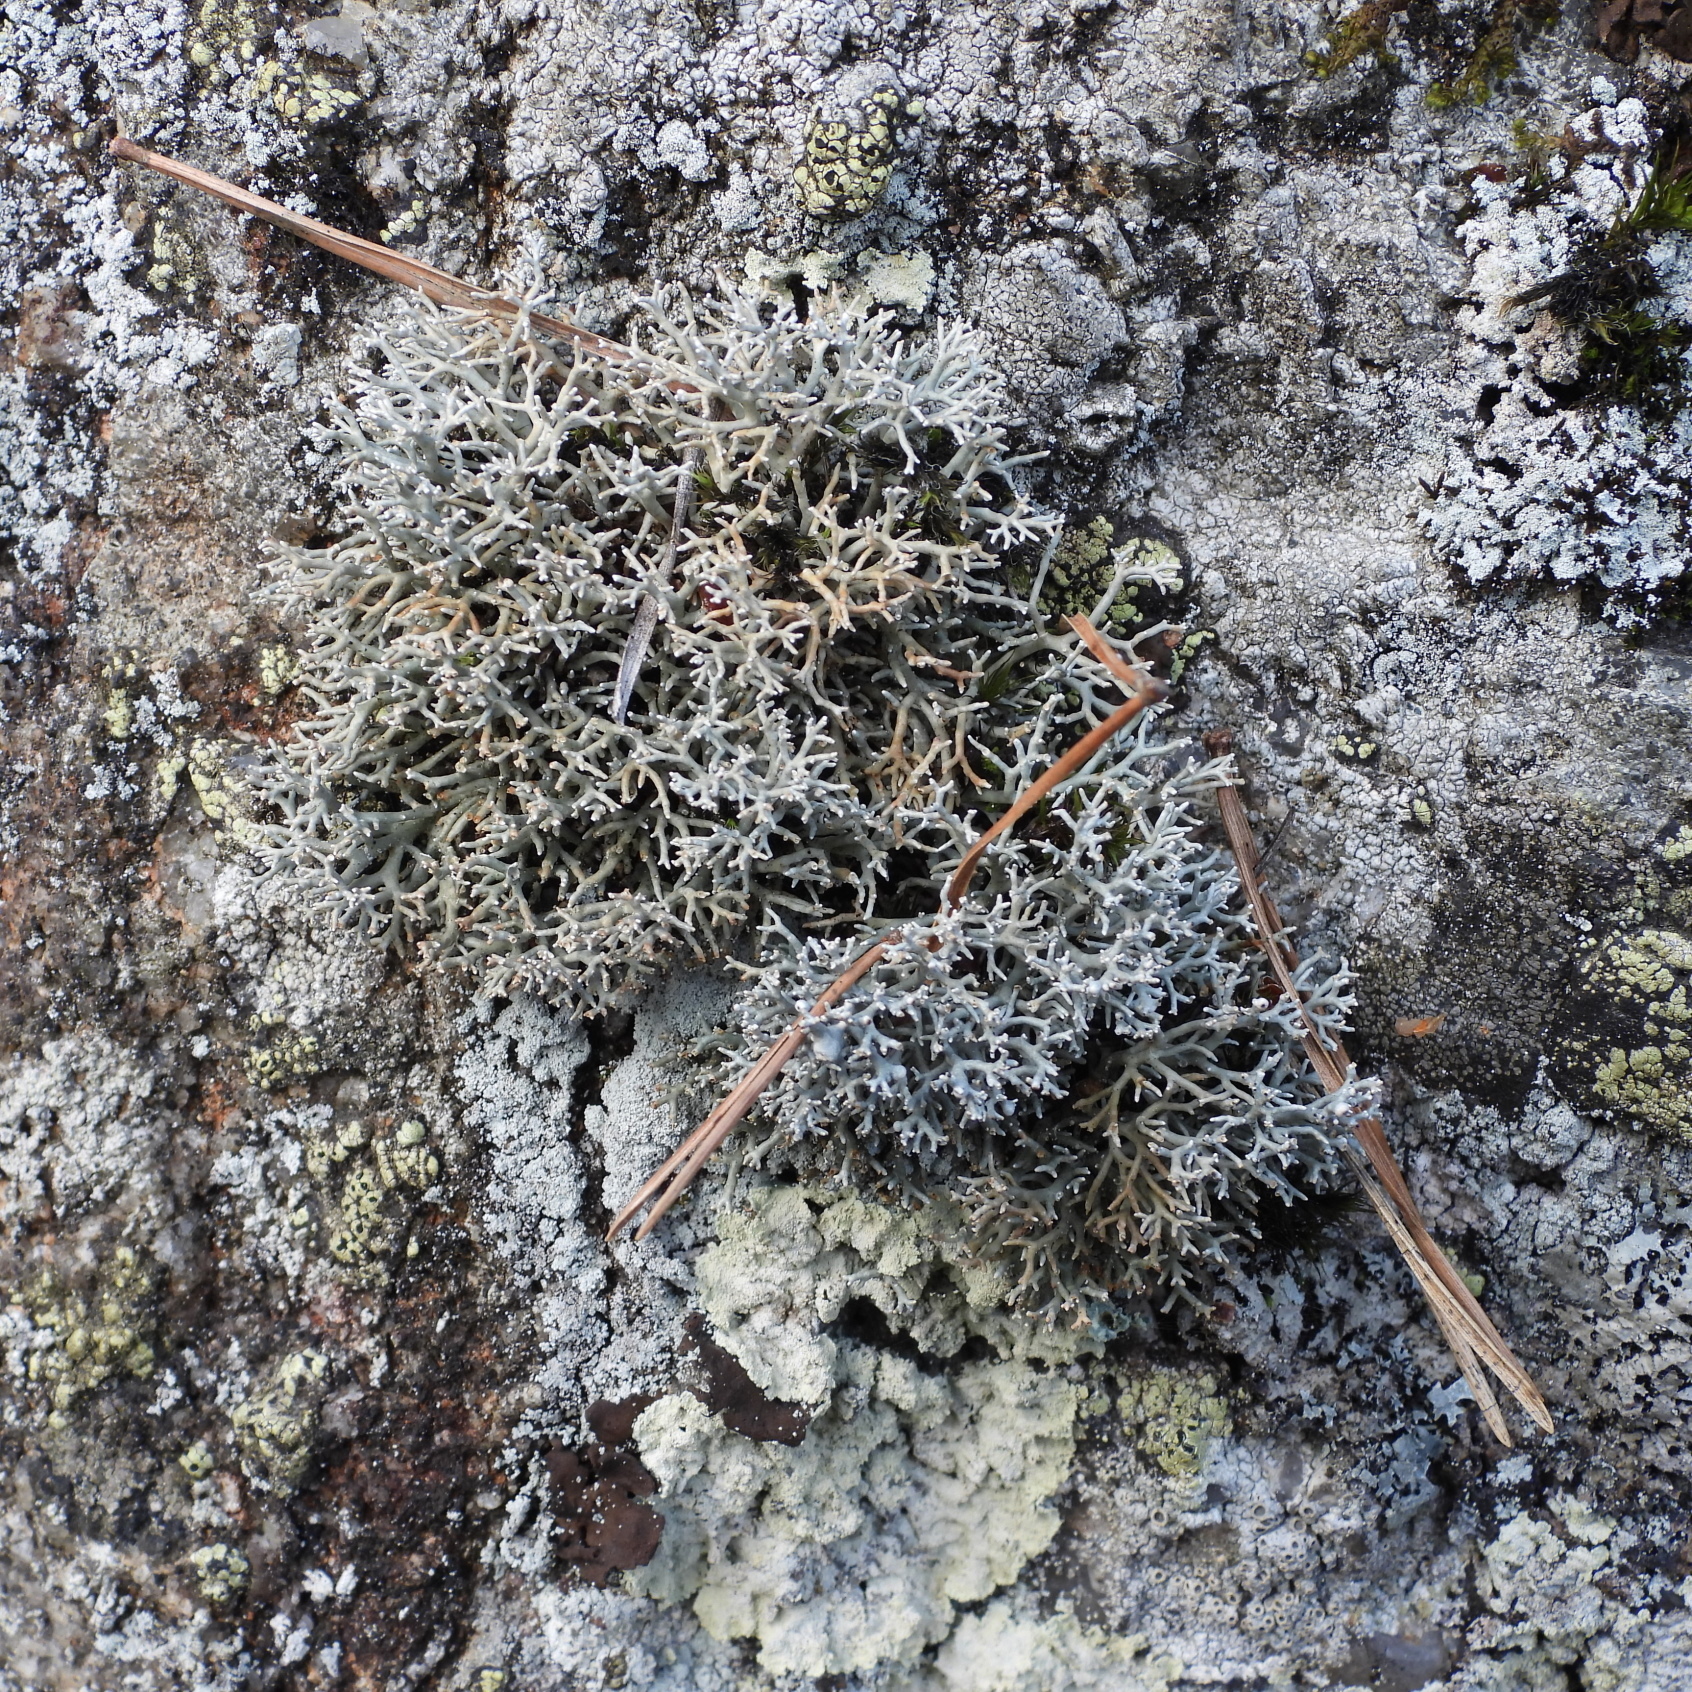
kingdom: Fungi
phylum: Ascomycota
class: Lecanoromycetes
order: Lecanorales
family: Sphaerophoraceae
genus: Sphaerophorus
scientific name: Sphaerophorus fragilis
